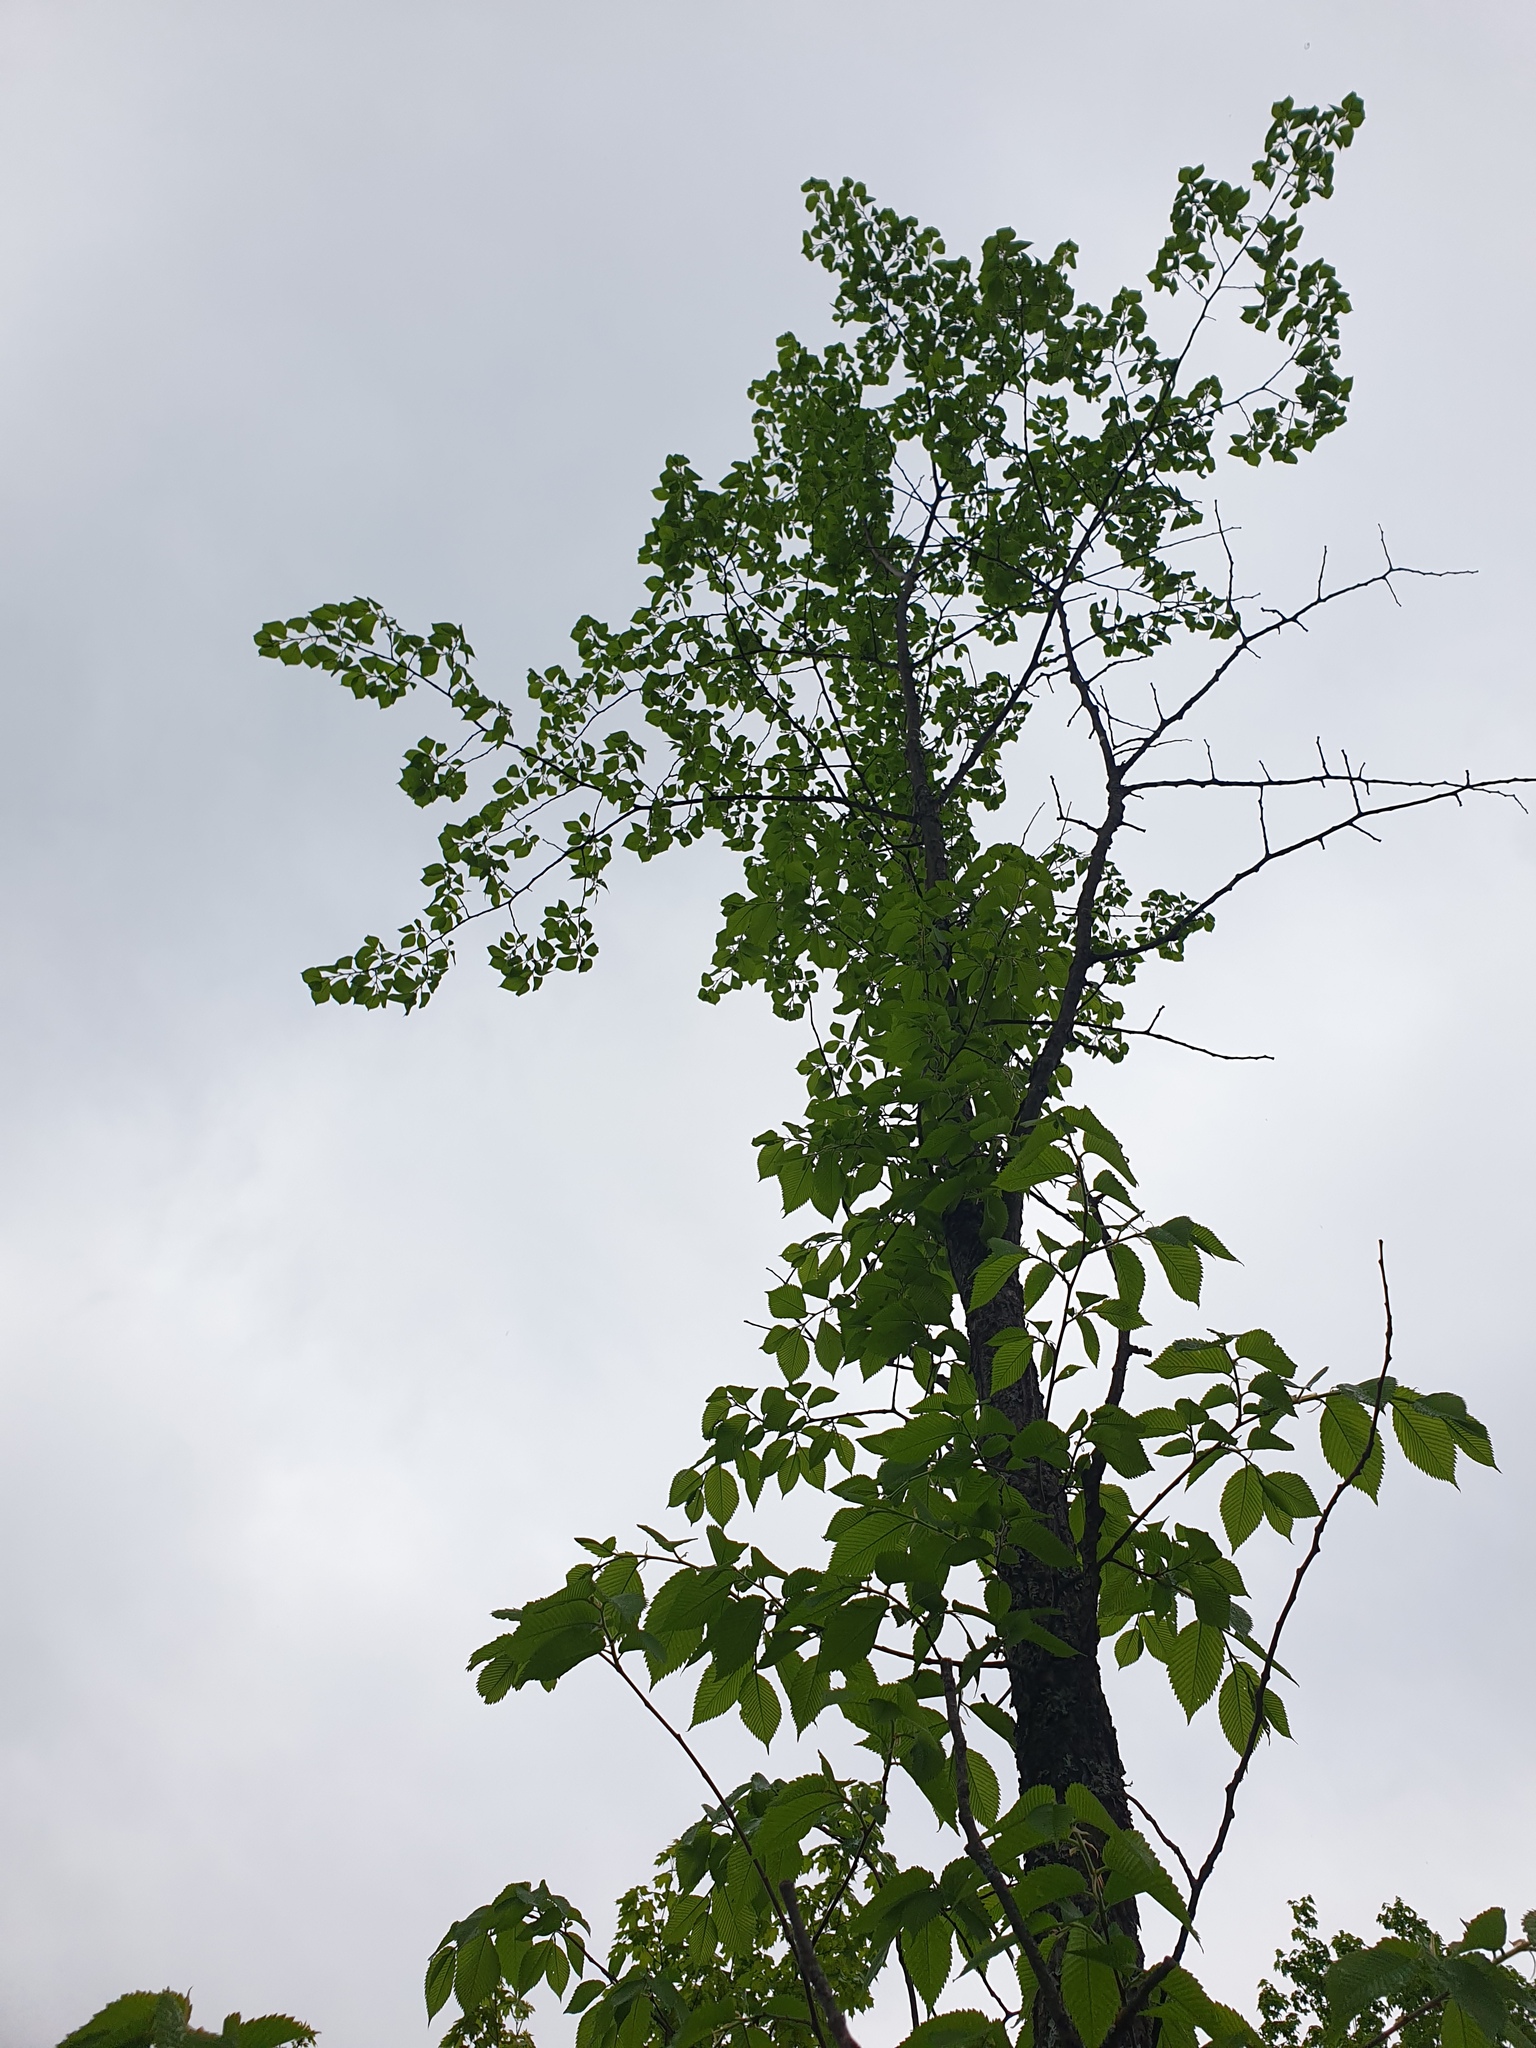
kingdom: Plantae
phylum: Tracheophyta
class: Magnoliopsida
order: Rosales
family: Ulmaceae
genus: Ulmus
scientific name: Ulmus americana
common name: American elm
